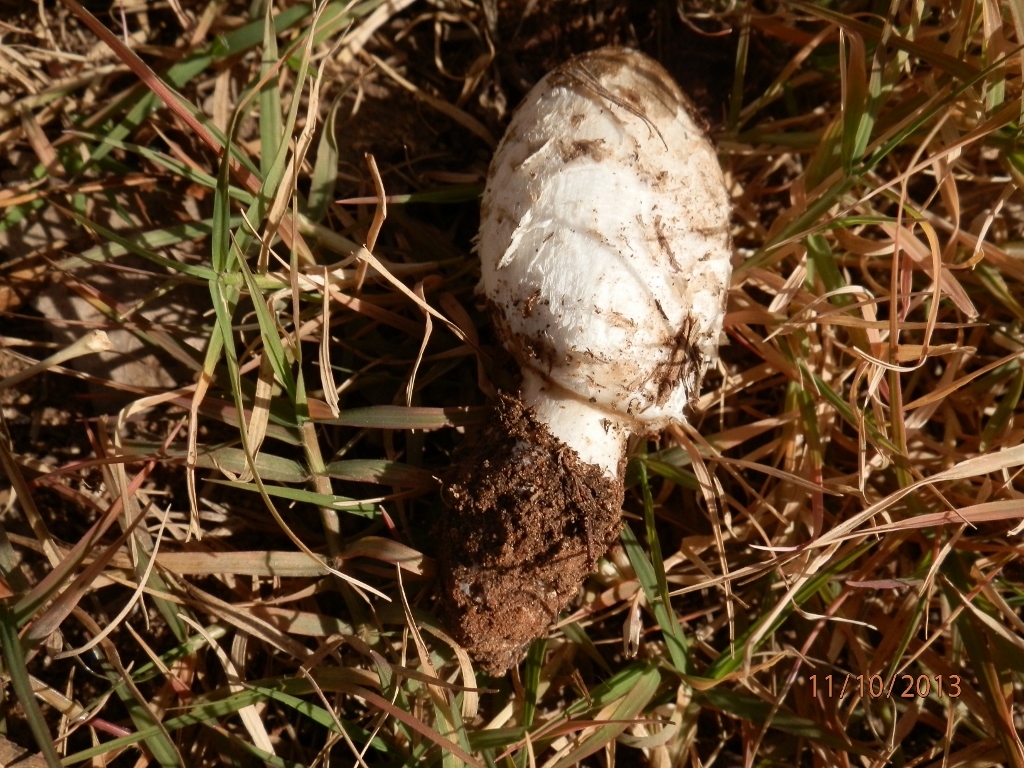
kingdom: Fungi
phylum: Basidiomycota
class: Agaricomycetes
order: Agaricales
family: Agaricaceae
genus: Coprinus
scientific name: Coprinus comatus
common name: Lawyer's wig
